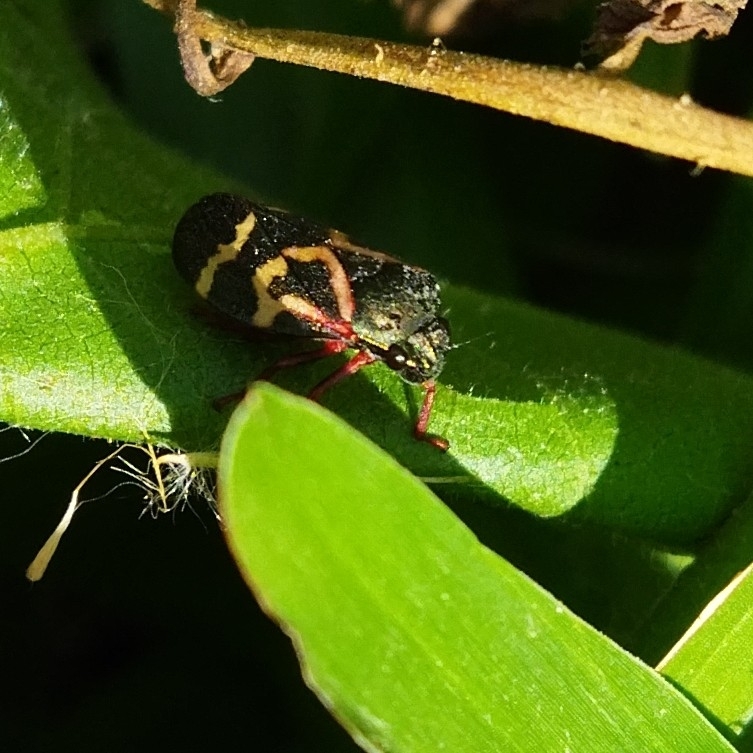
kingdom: Animalia
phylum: Arthropoda
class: Insecta
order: Hemiptera
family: Cercopidae
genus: Deois
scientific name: Deois flexuosa
